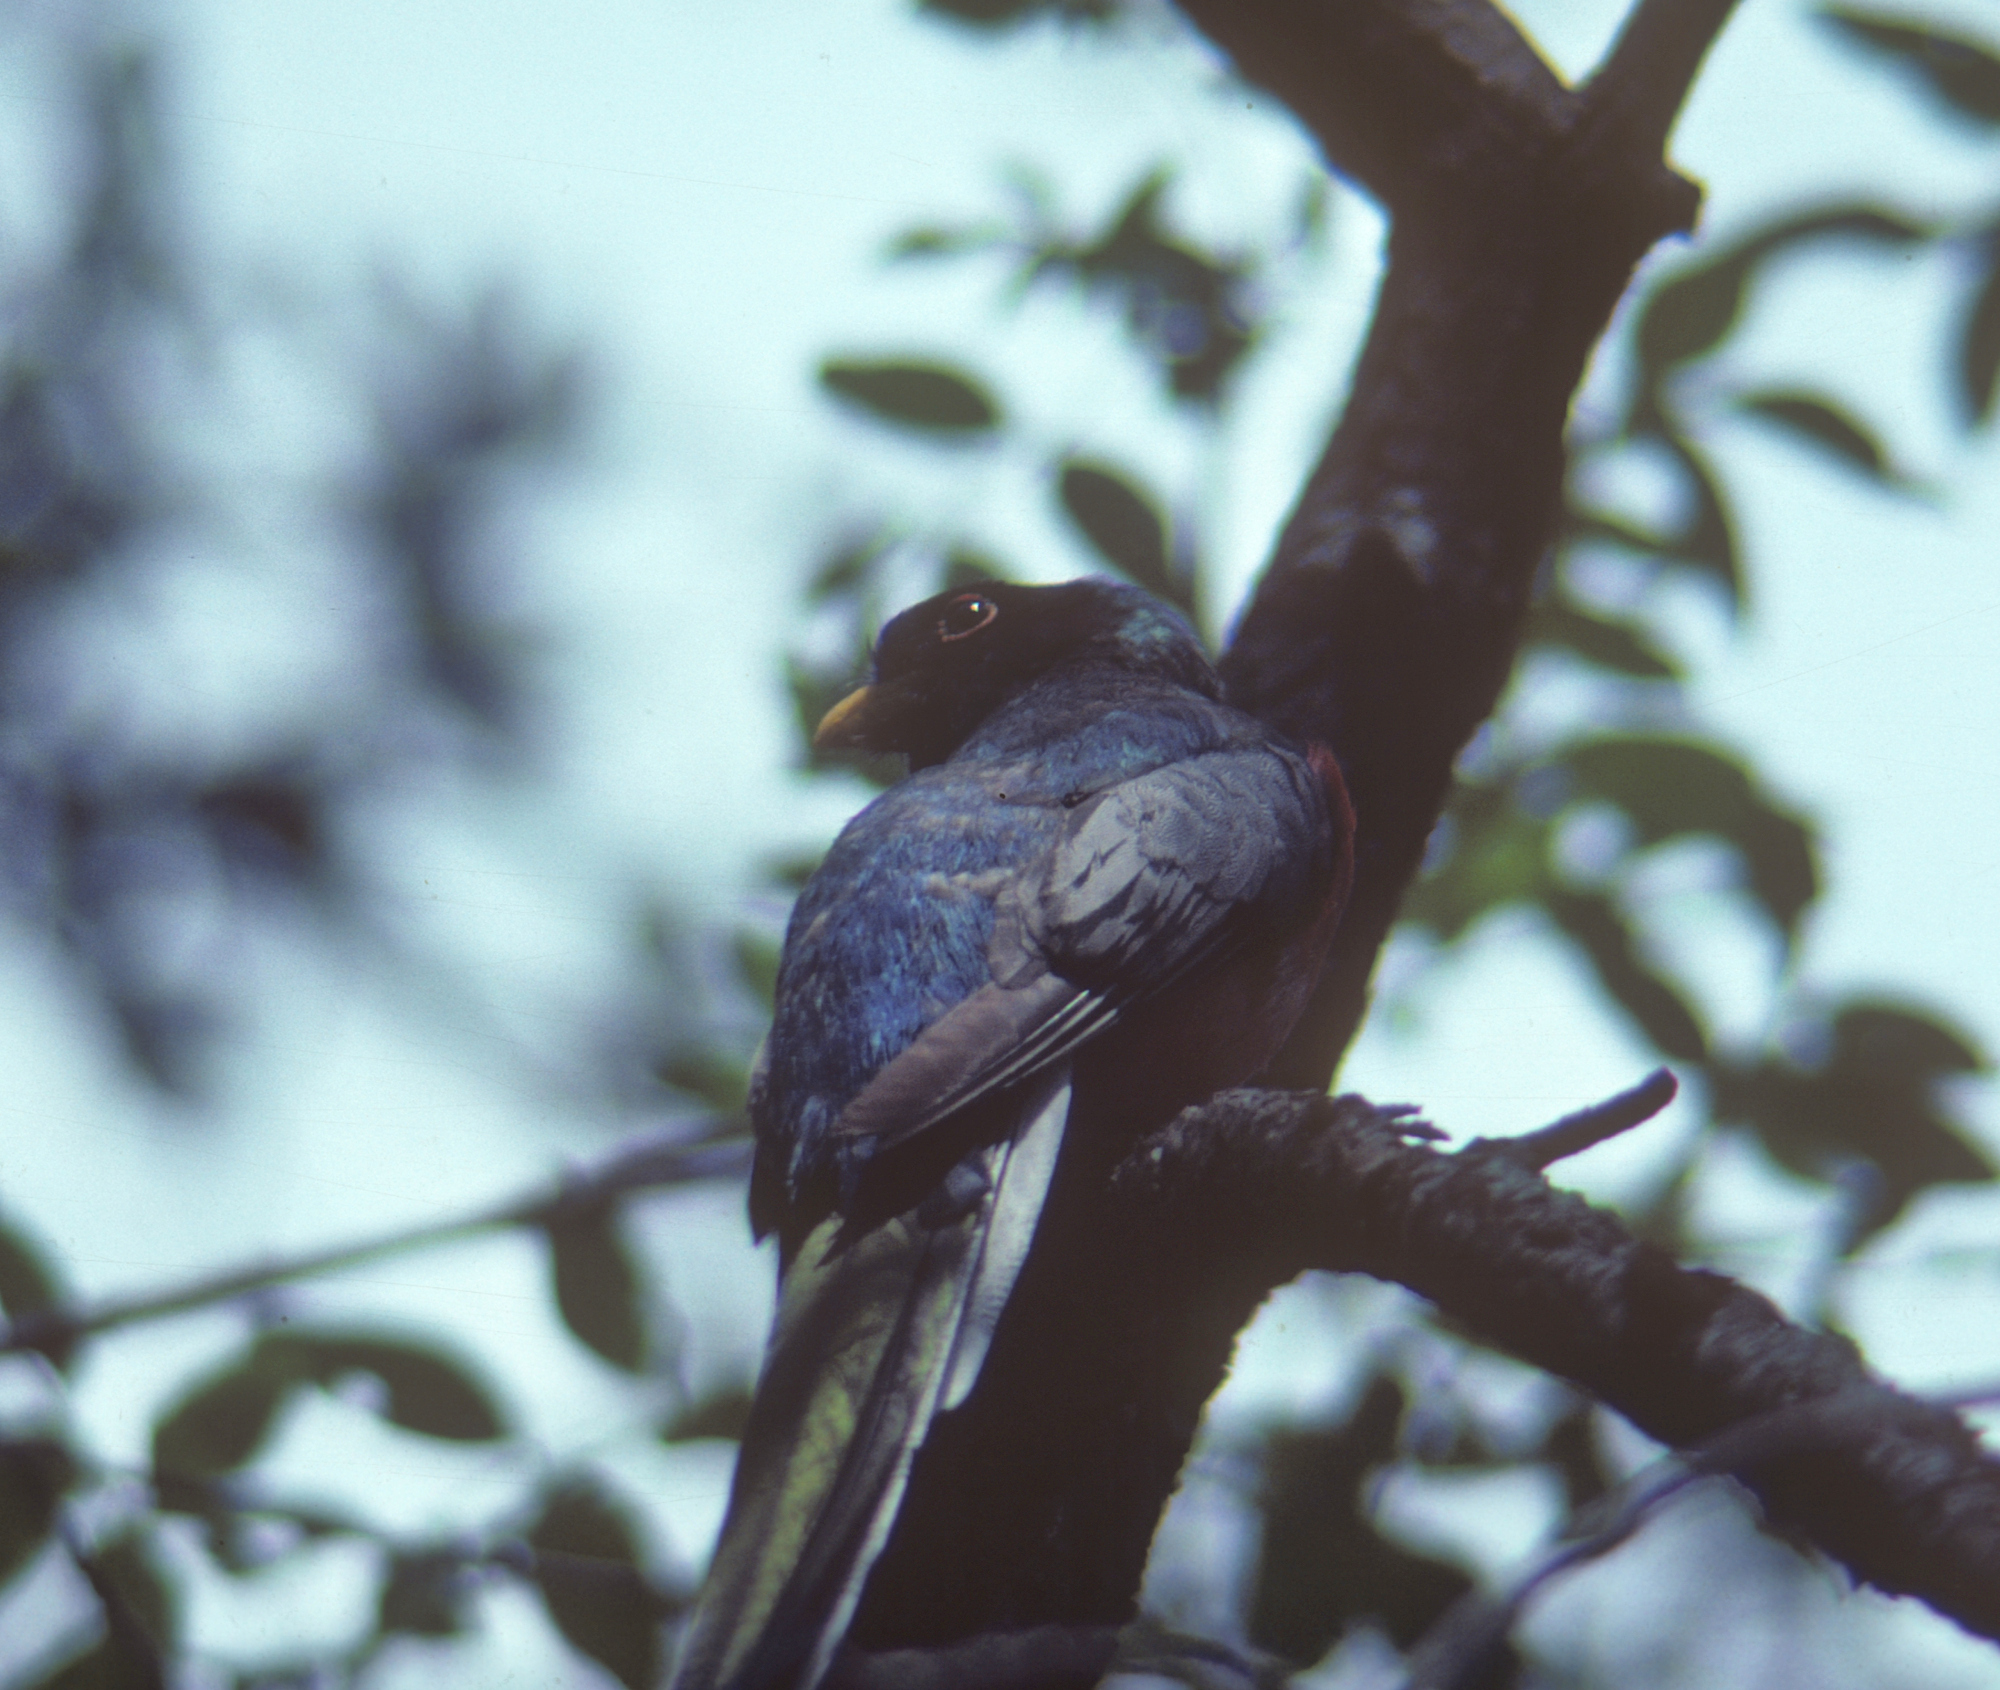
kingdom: Animalia
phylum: Chordata
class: Aves
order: Trogoniformes
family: Trogonidae
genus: Trogon
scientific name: Trogon elegans
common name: Elegant trogon
